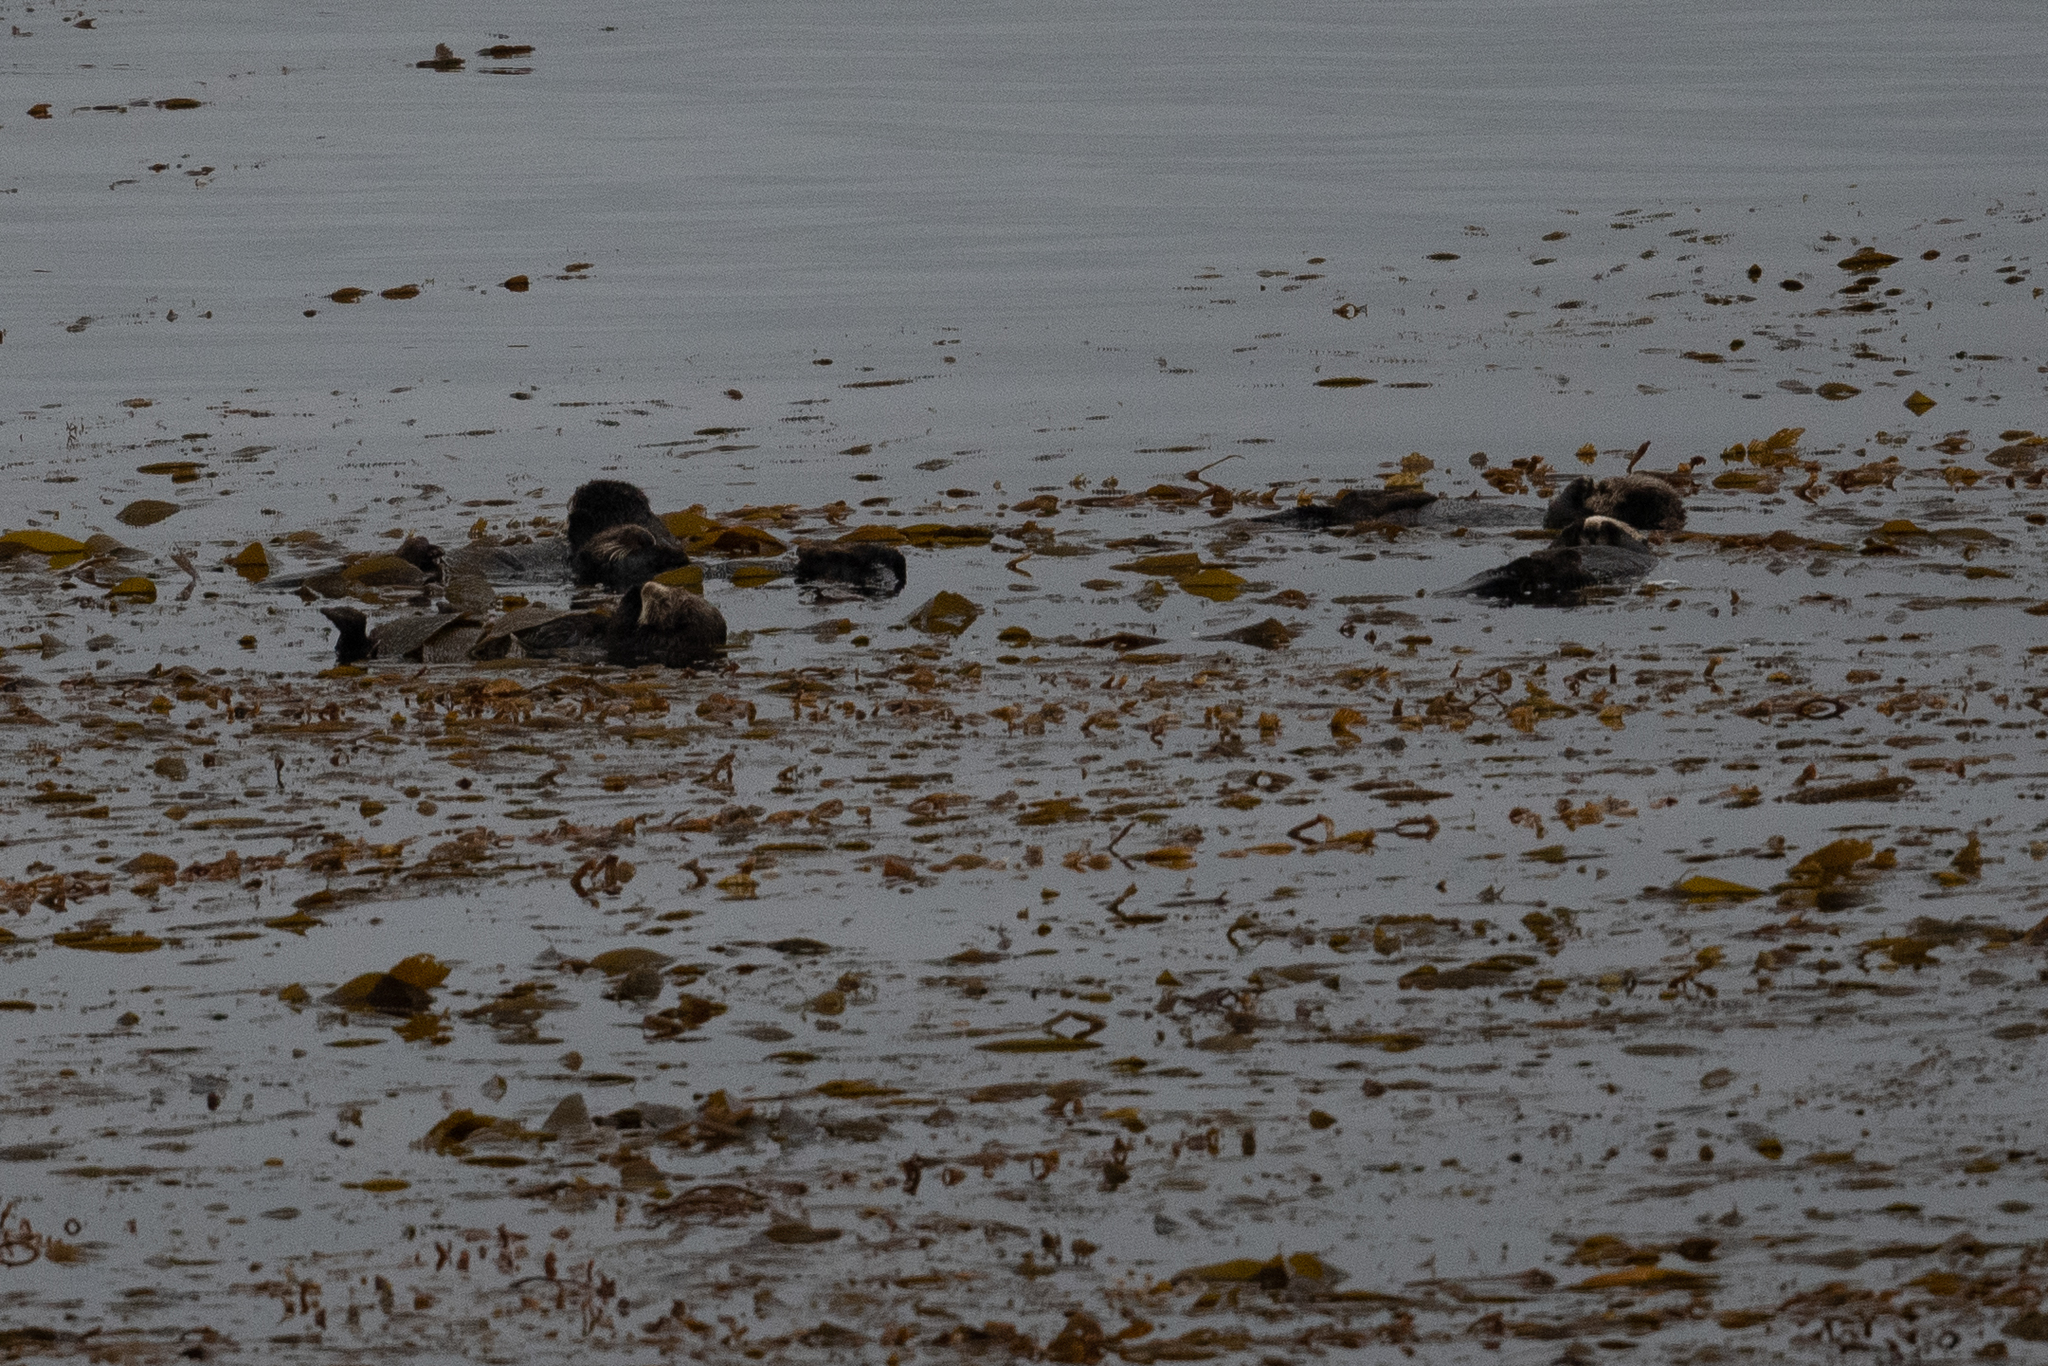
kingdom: Animalia
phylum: Chordata
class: Mammalia
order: Carnivora
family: Mustelidae
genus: Enhydra
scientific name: Enhydra lutris
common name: Sea otter
